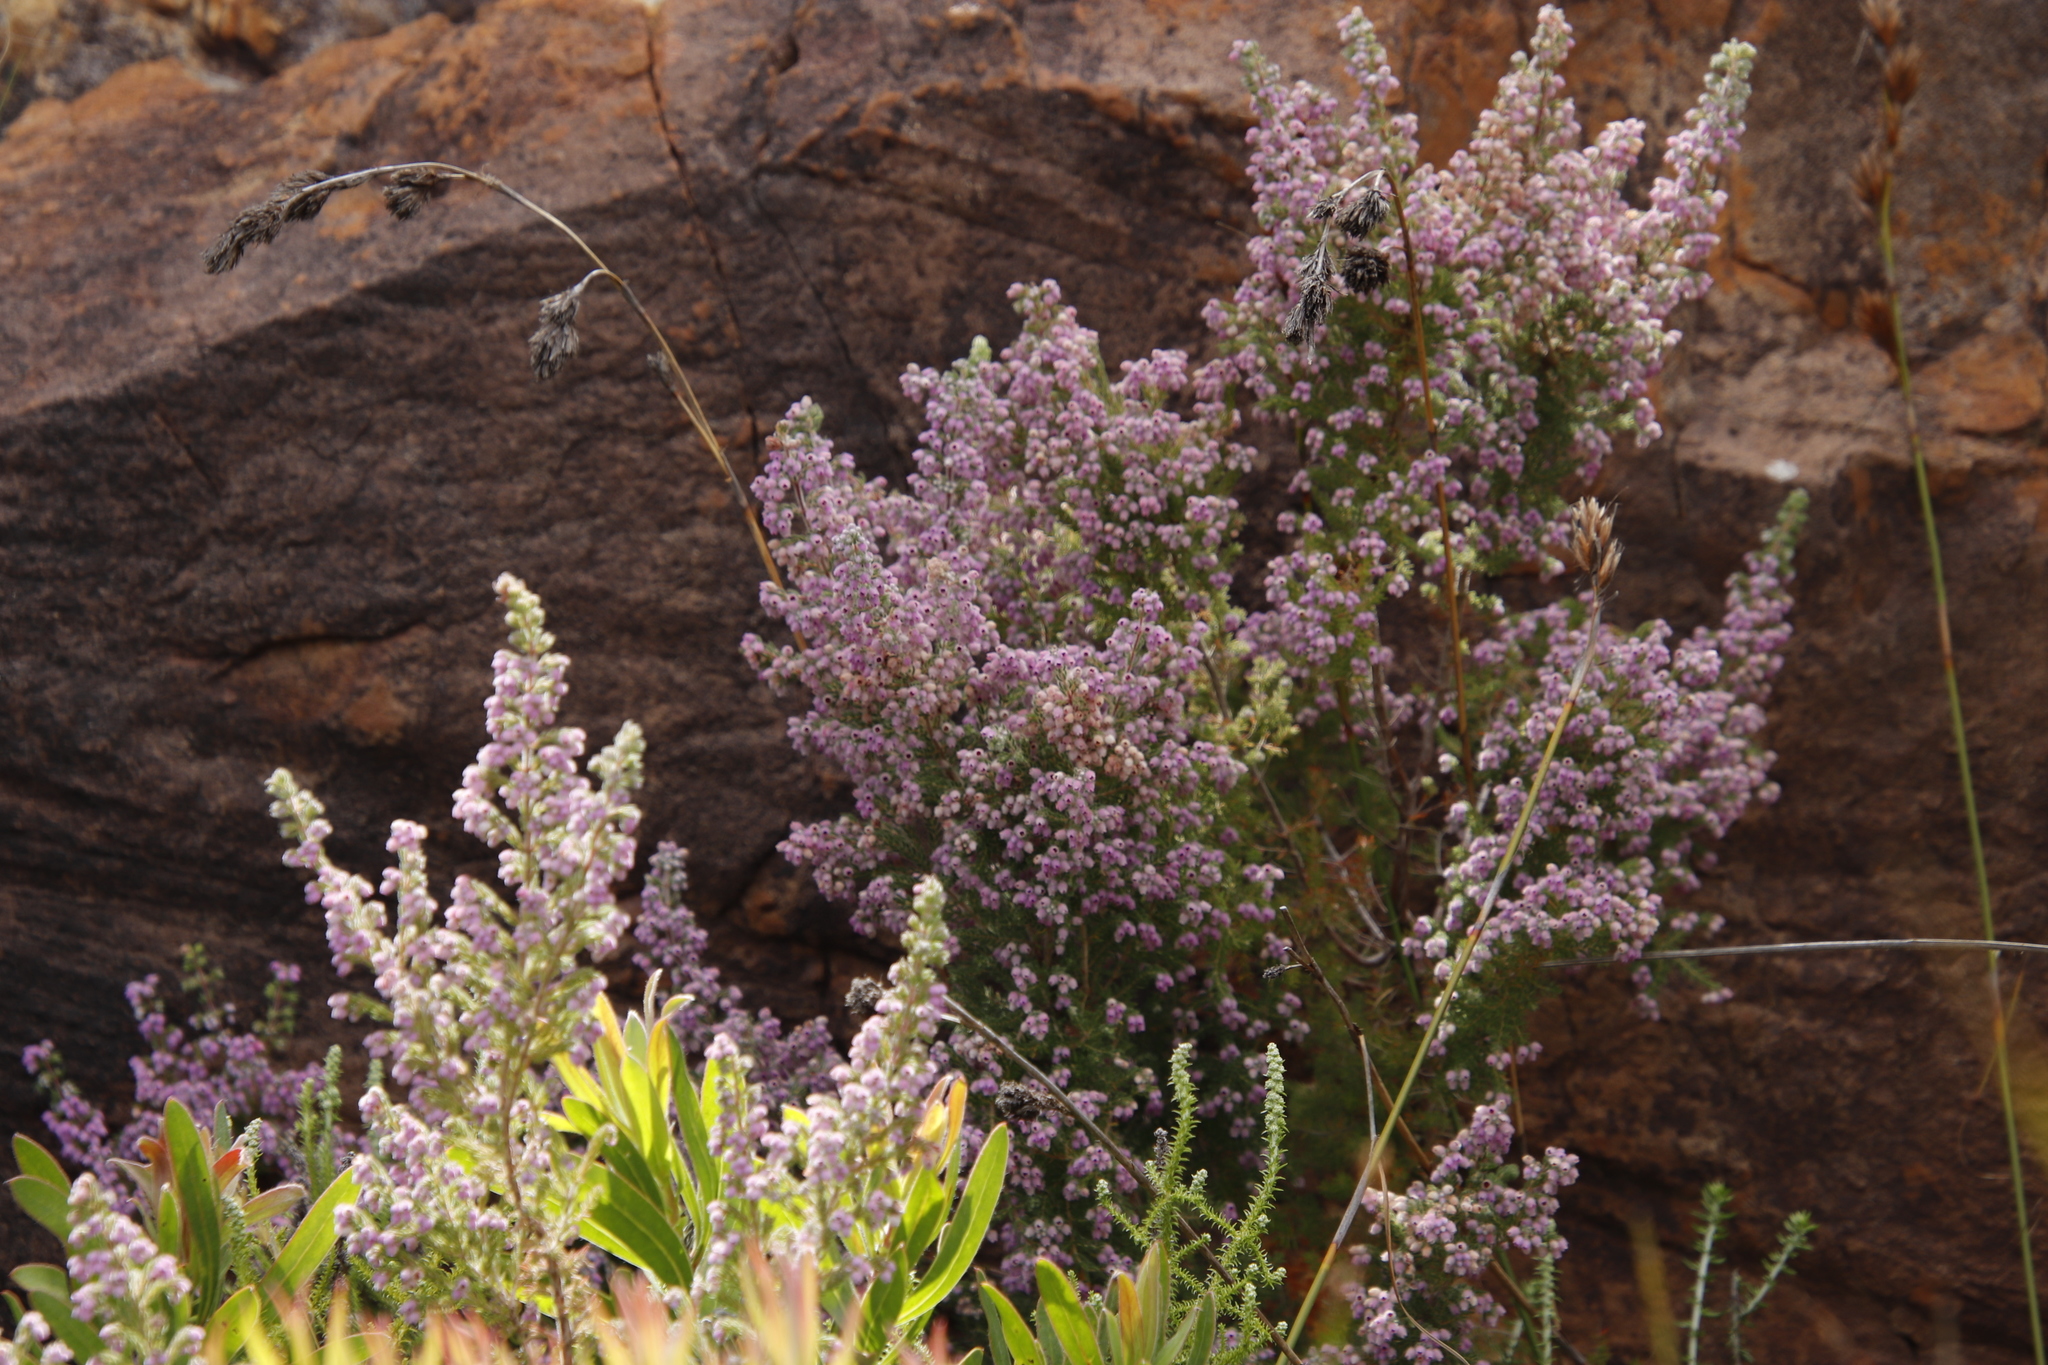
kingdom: Plantae
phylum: Tracheophyta
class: Magnoliopsida
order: Ericales
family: Ericaceae
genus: Erica
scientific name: Erica hirtiflora
